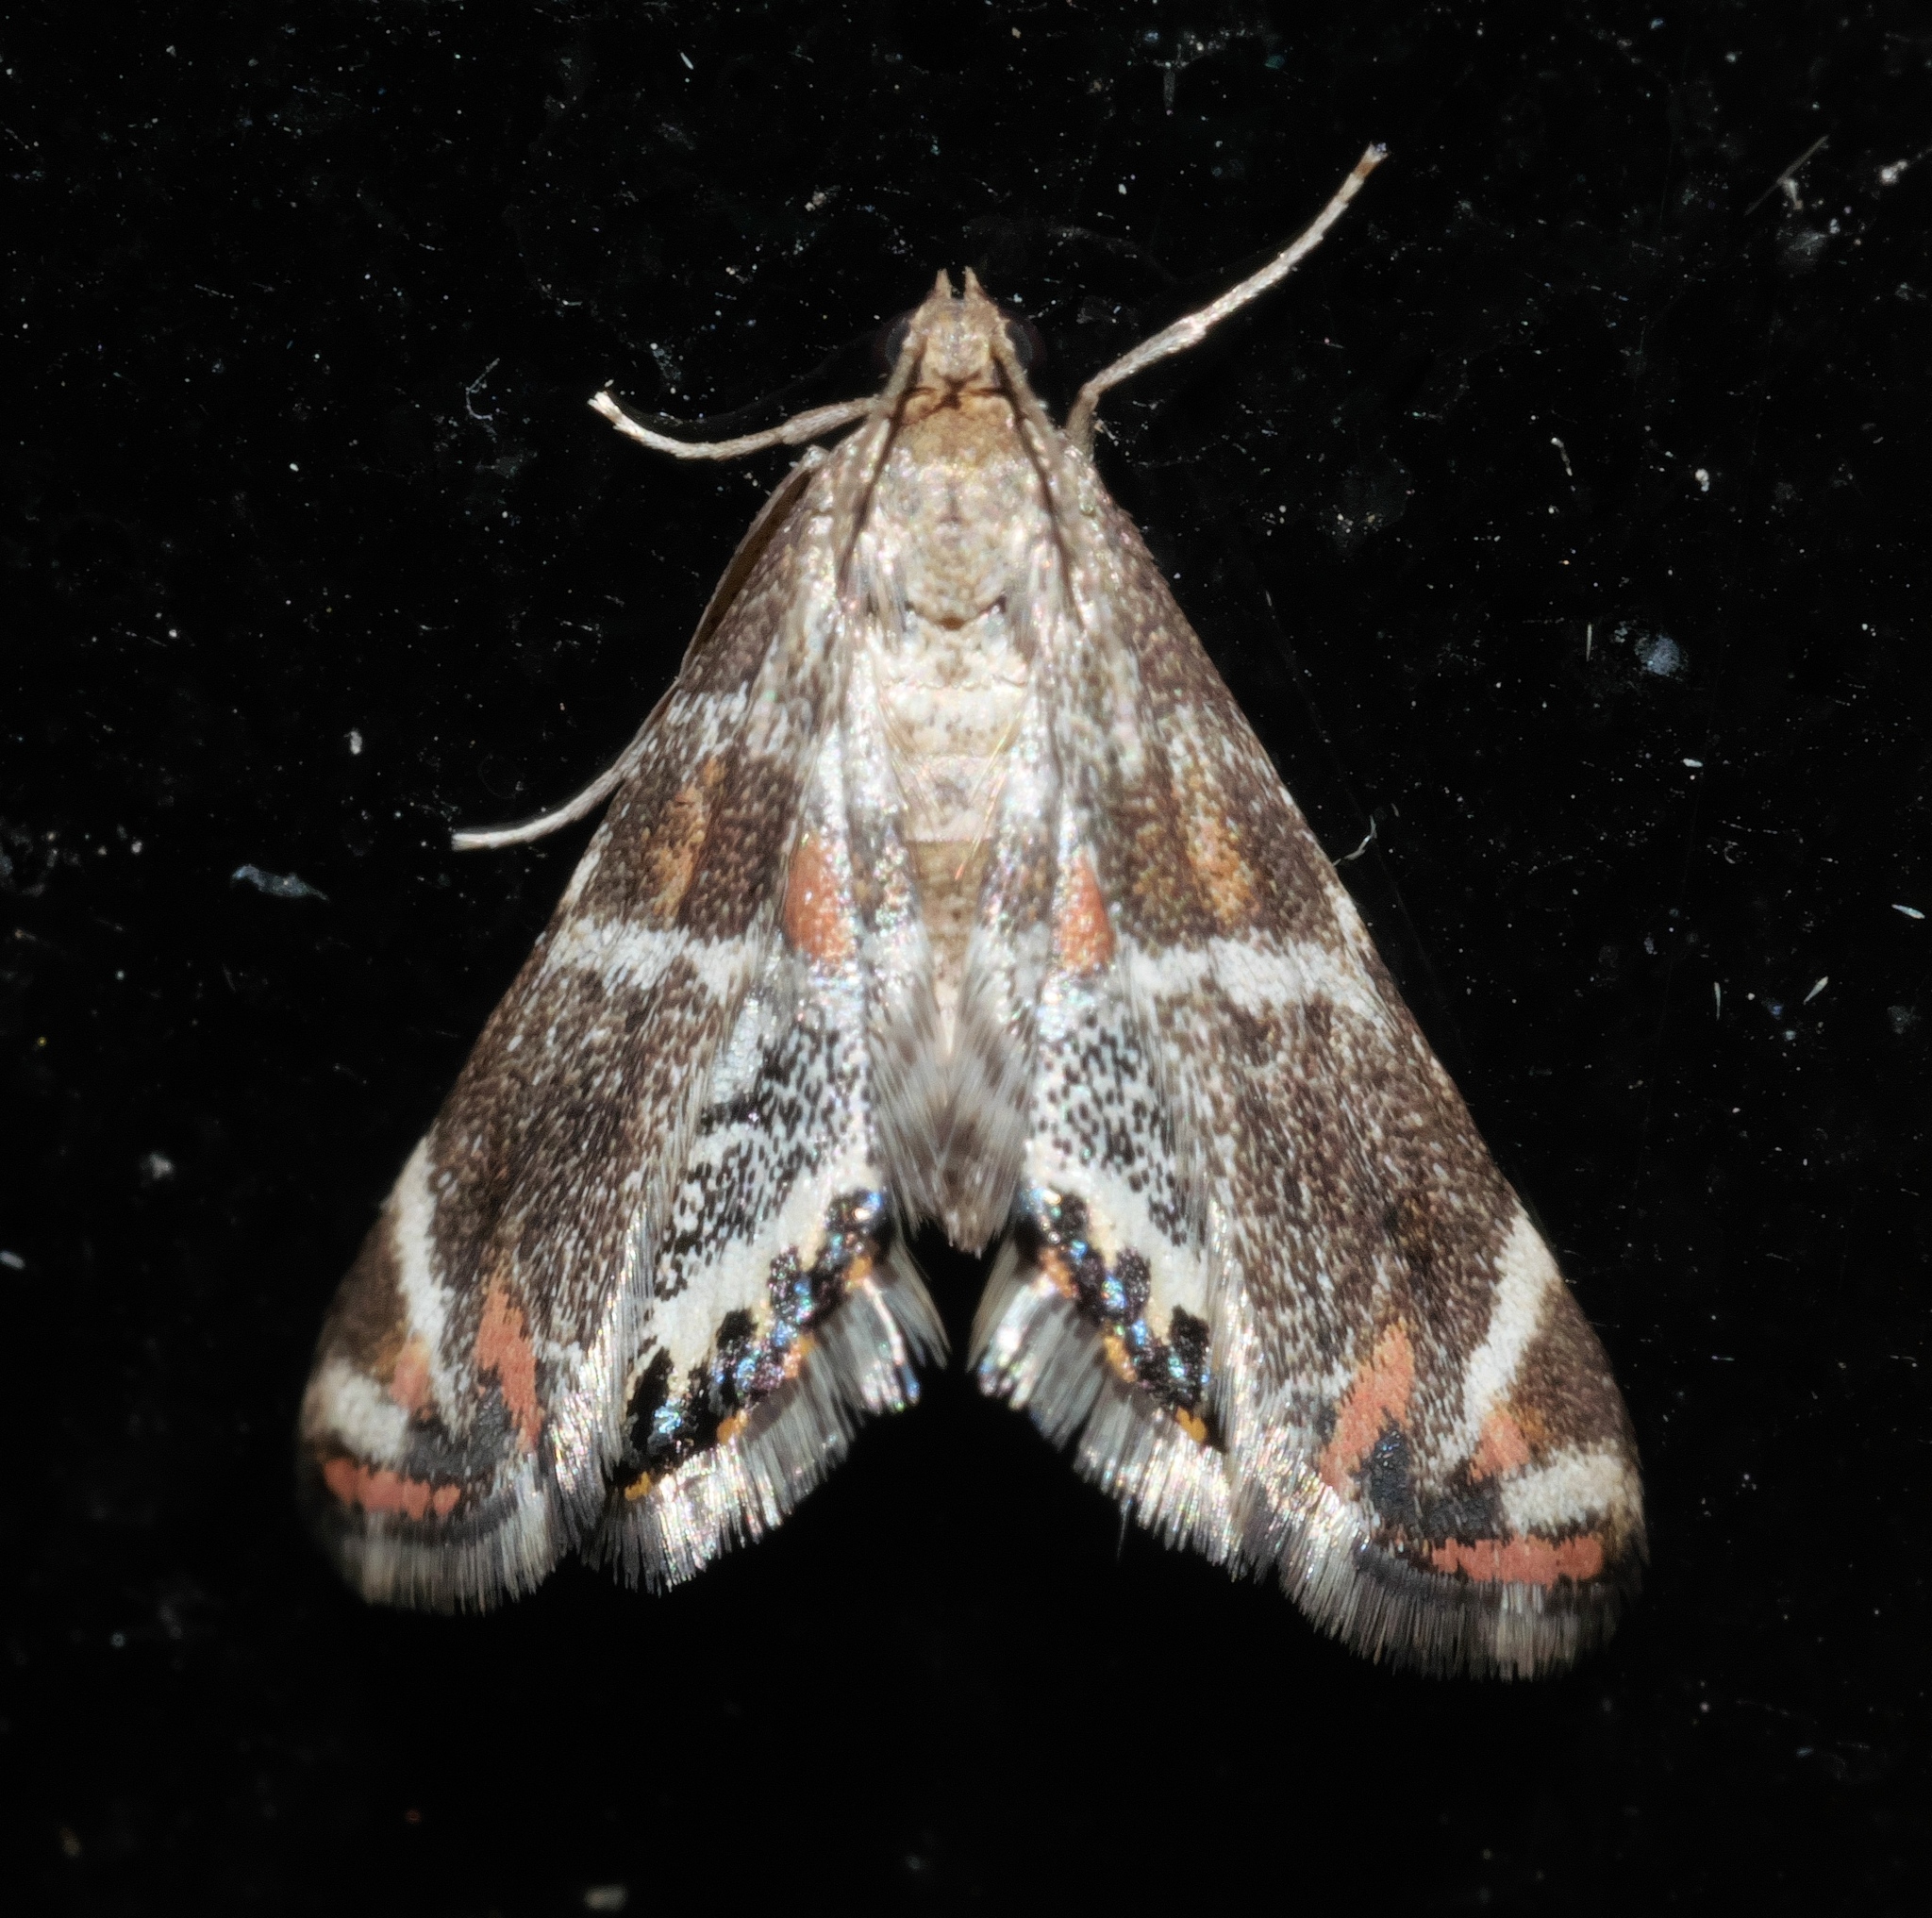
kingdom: Animalia
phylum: Arthropoda
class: Insecta
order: Lepidoptera
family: Crambidae
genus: Petrophila
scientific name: Petrophila jaliscalis
